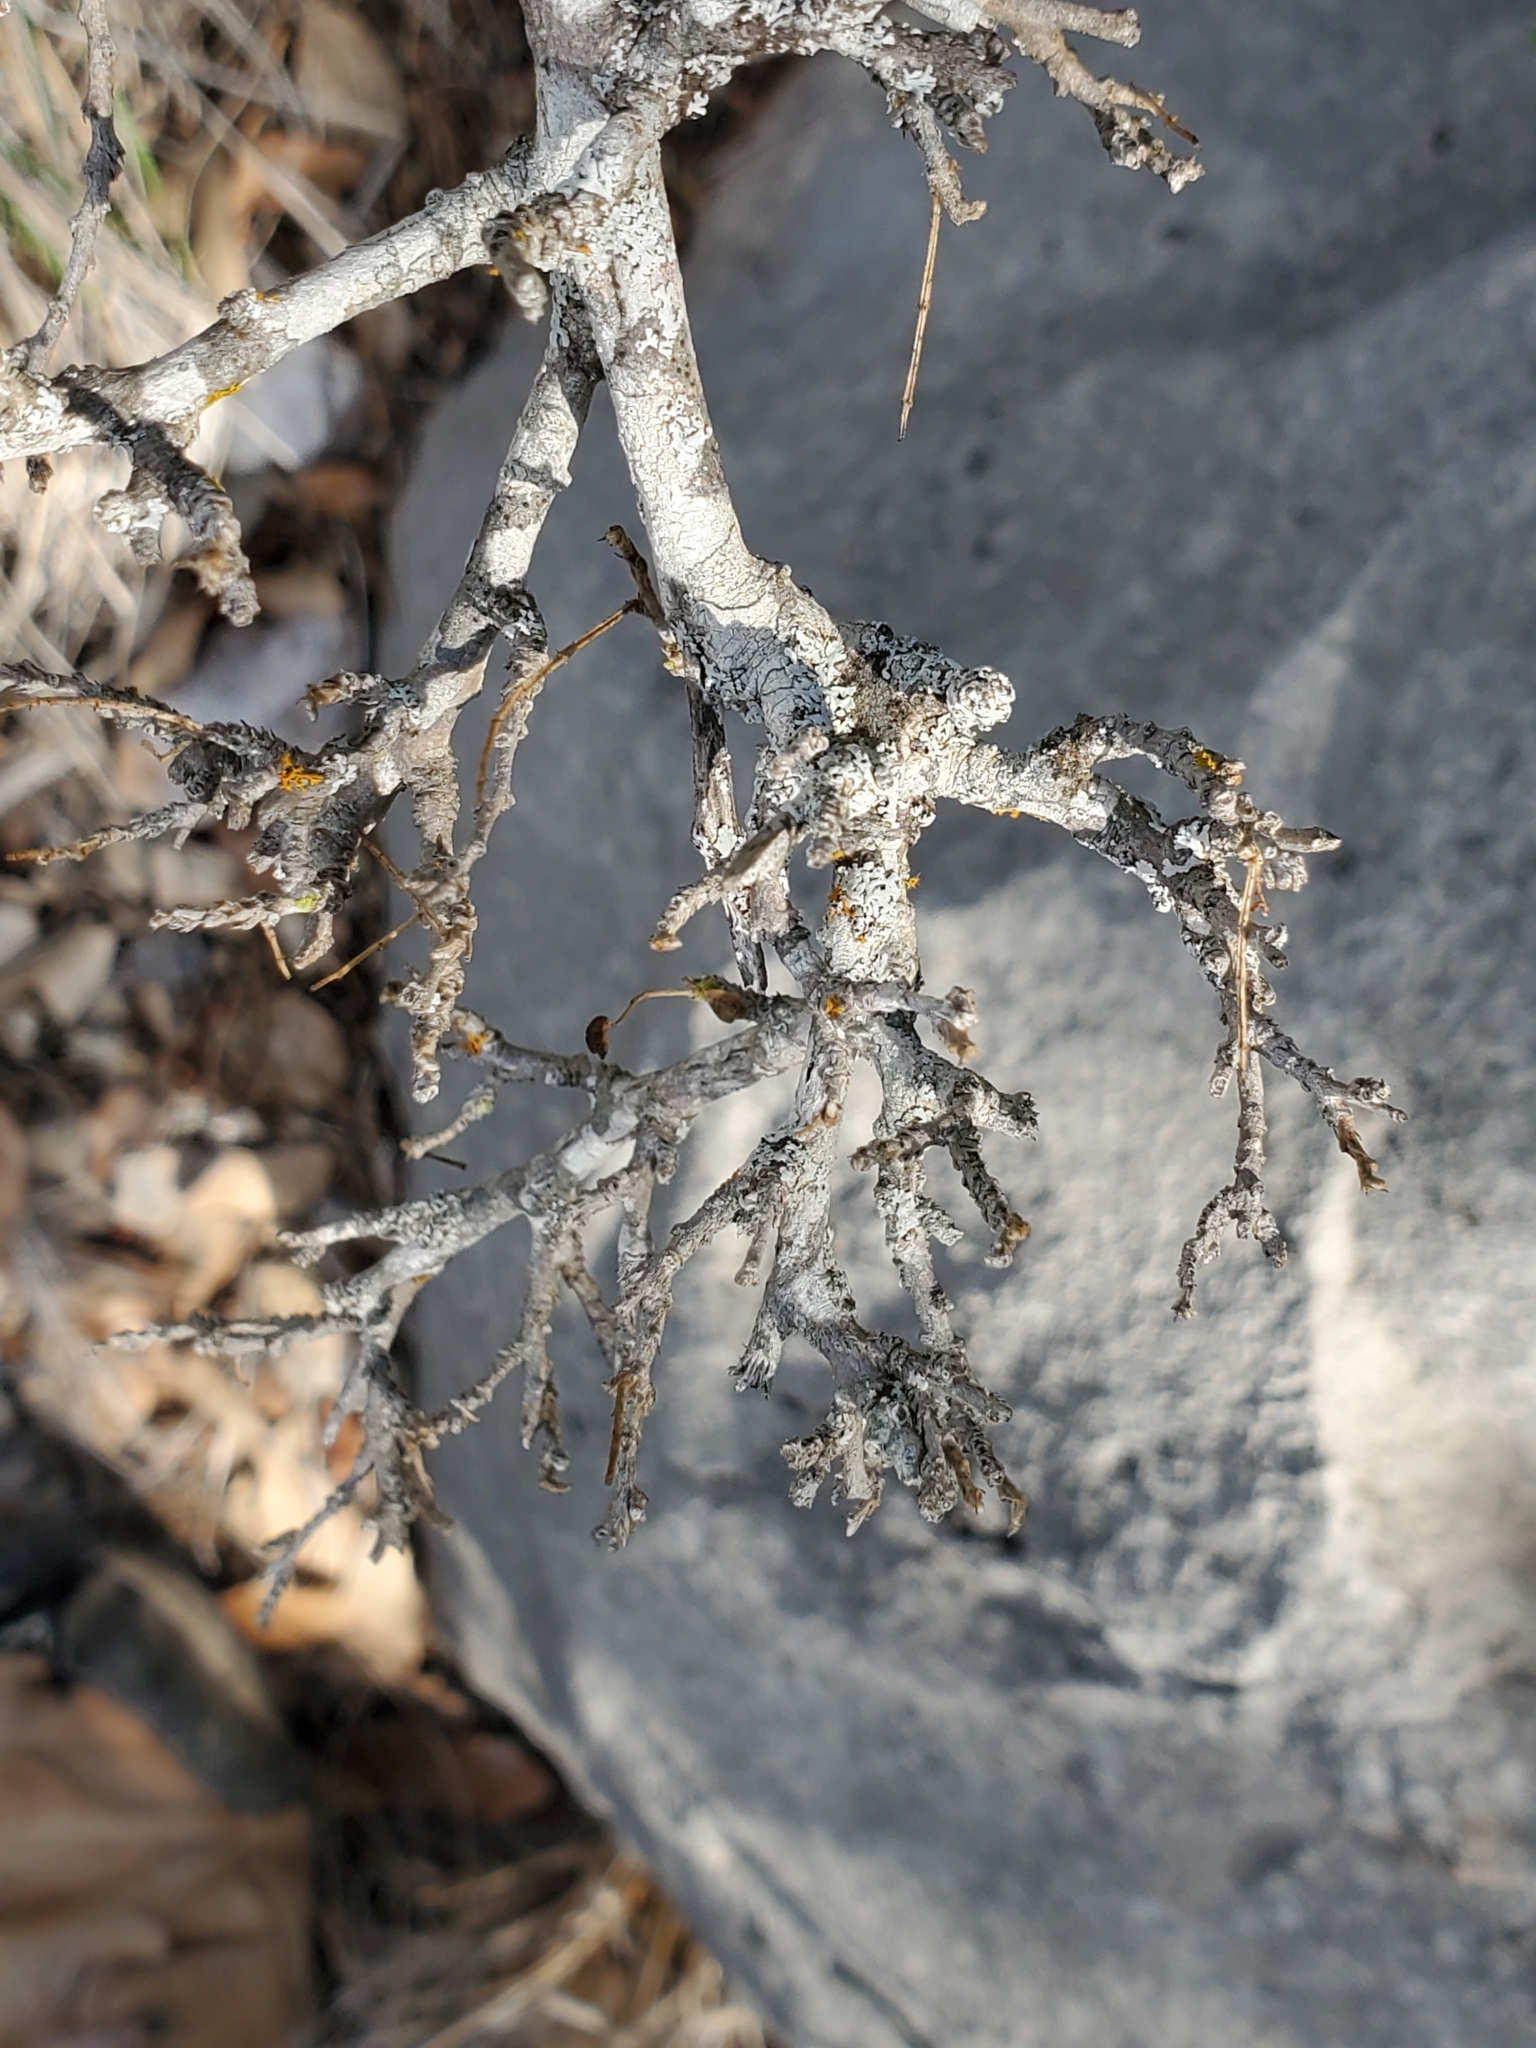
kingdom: Plantae
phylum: Tracheophyta
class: Magnoliopsida
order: Fabales
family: Fabaceae
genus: Eysenhardtia
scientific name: Eysenhardtia texana
